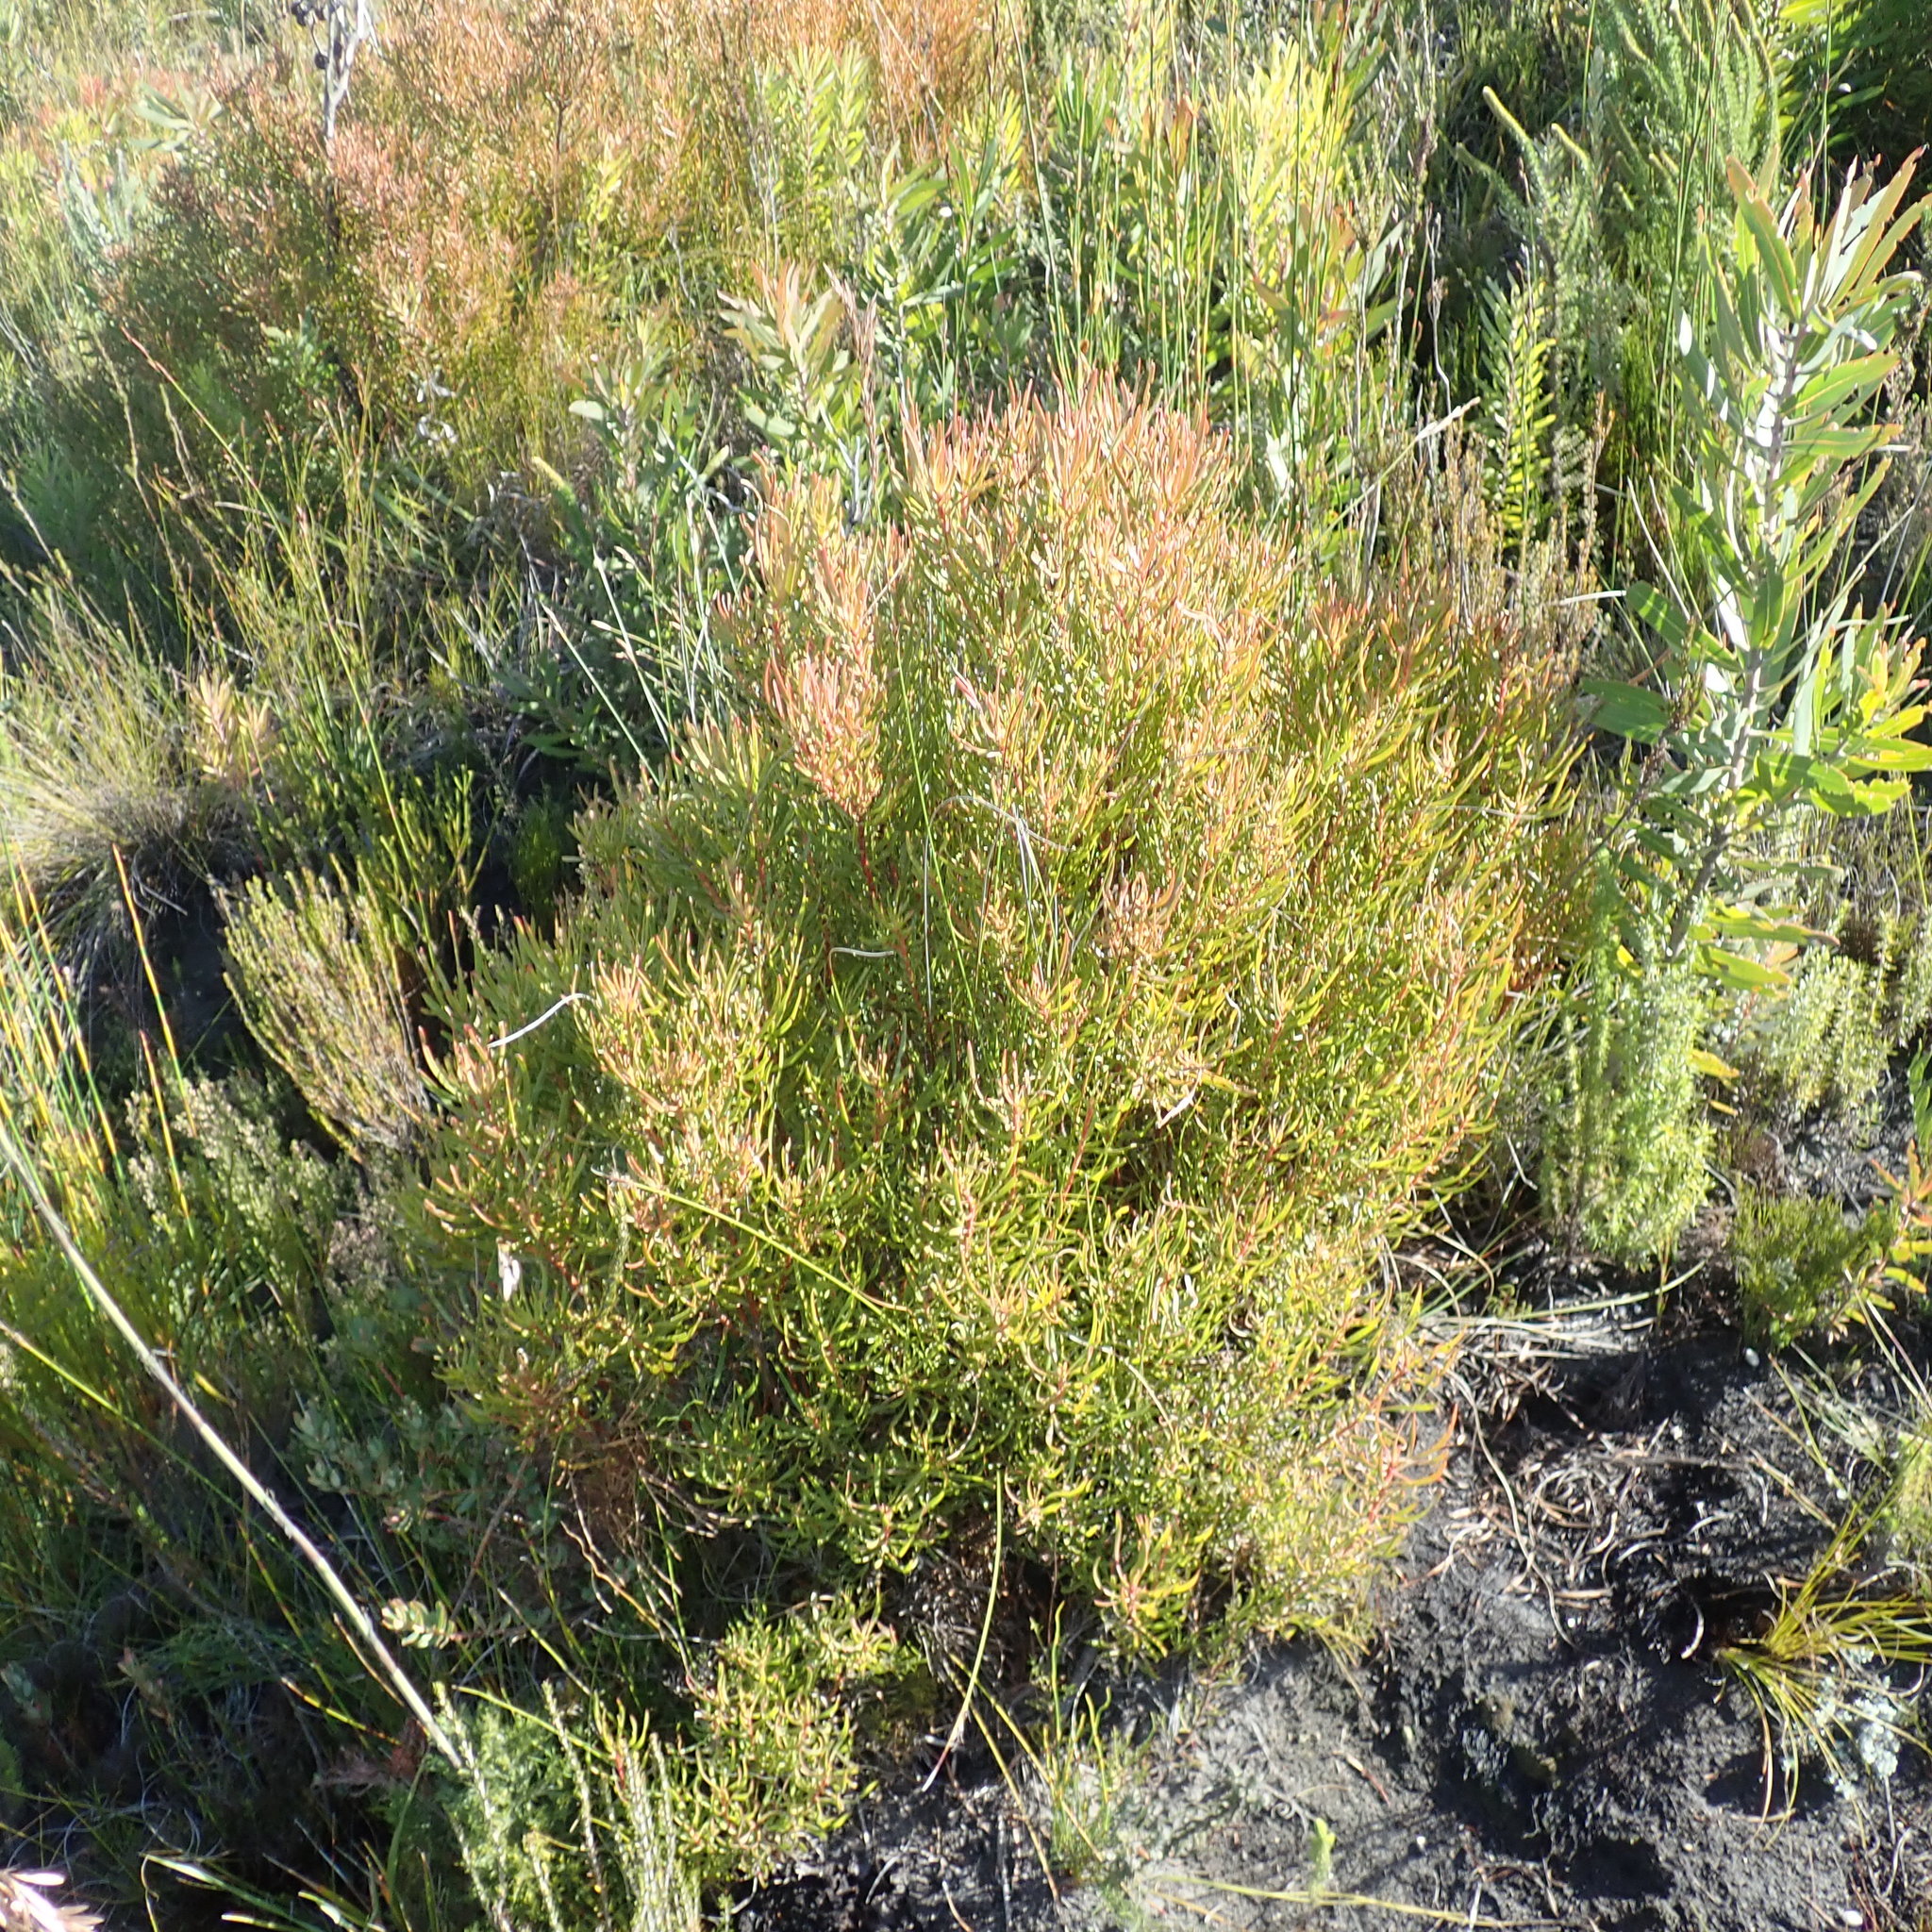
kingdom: Plantae
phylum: Tracheophyta
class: Magnoliopsida
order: Proteales
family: Proteaceae
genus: Leucadendron
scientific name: Leucadendron spissifolium
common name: Spear-leaf conebush
